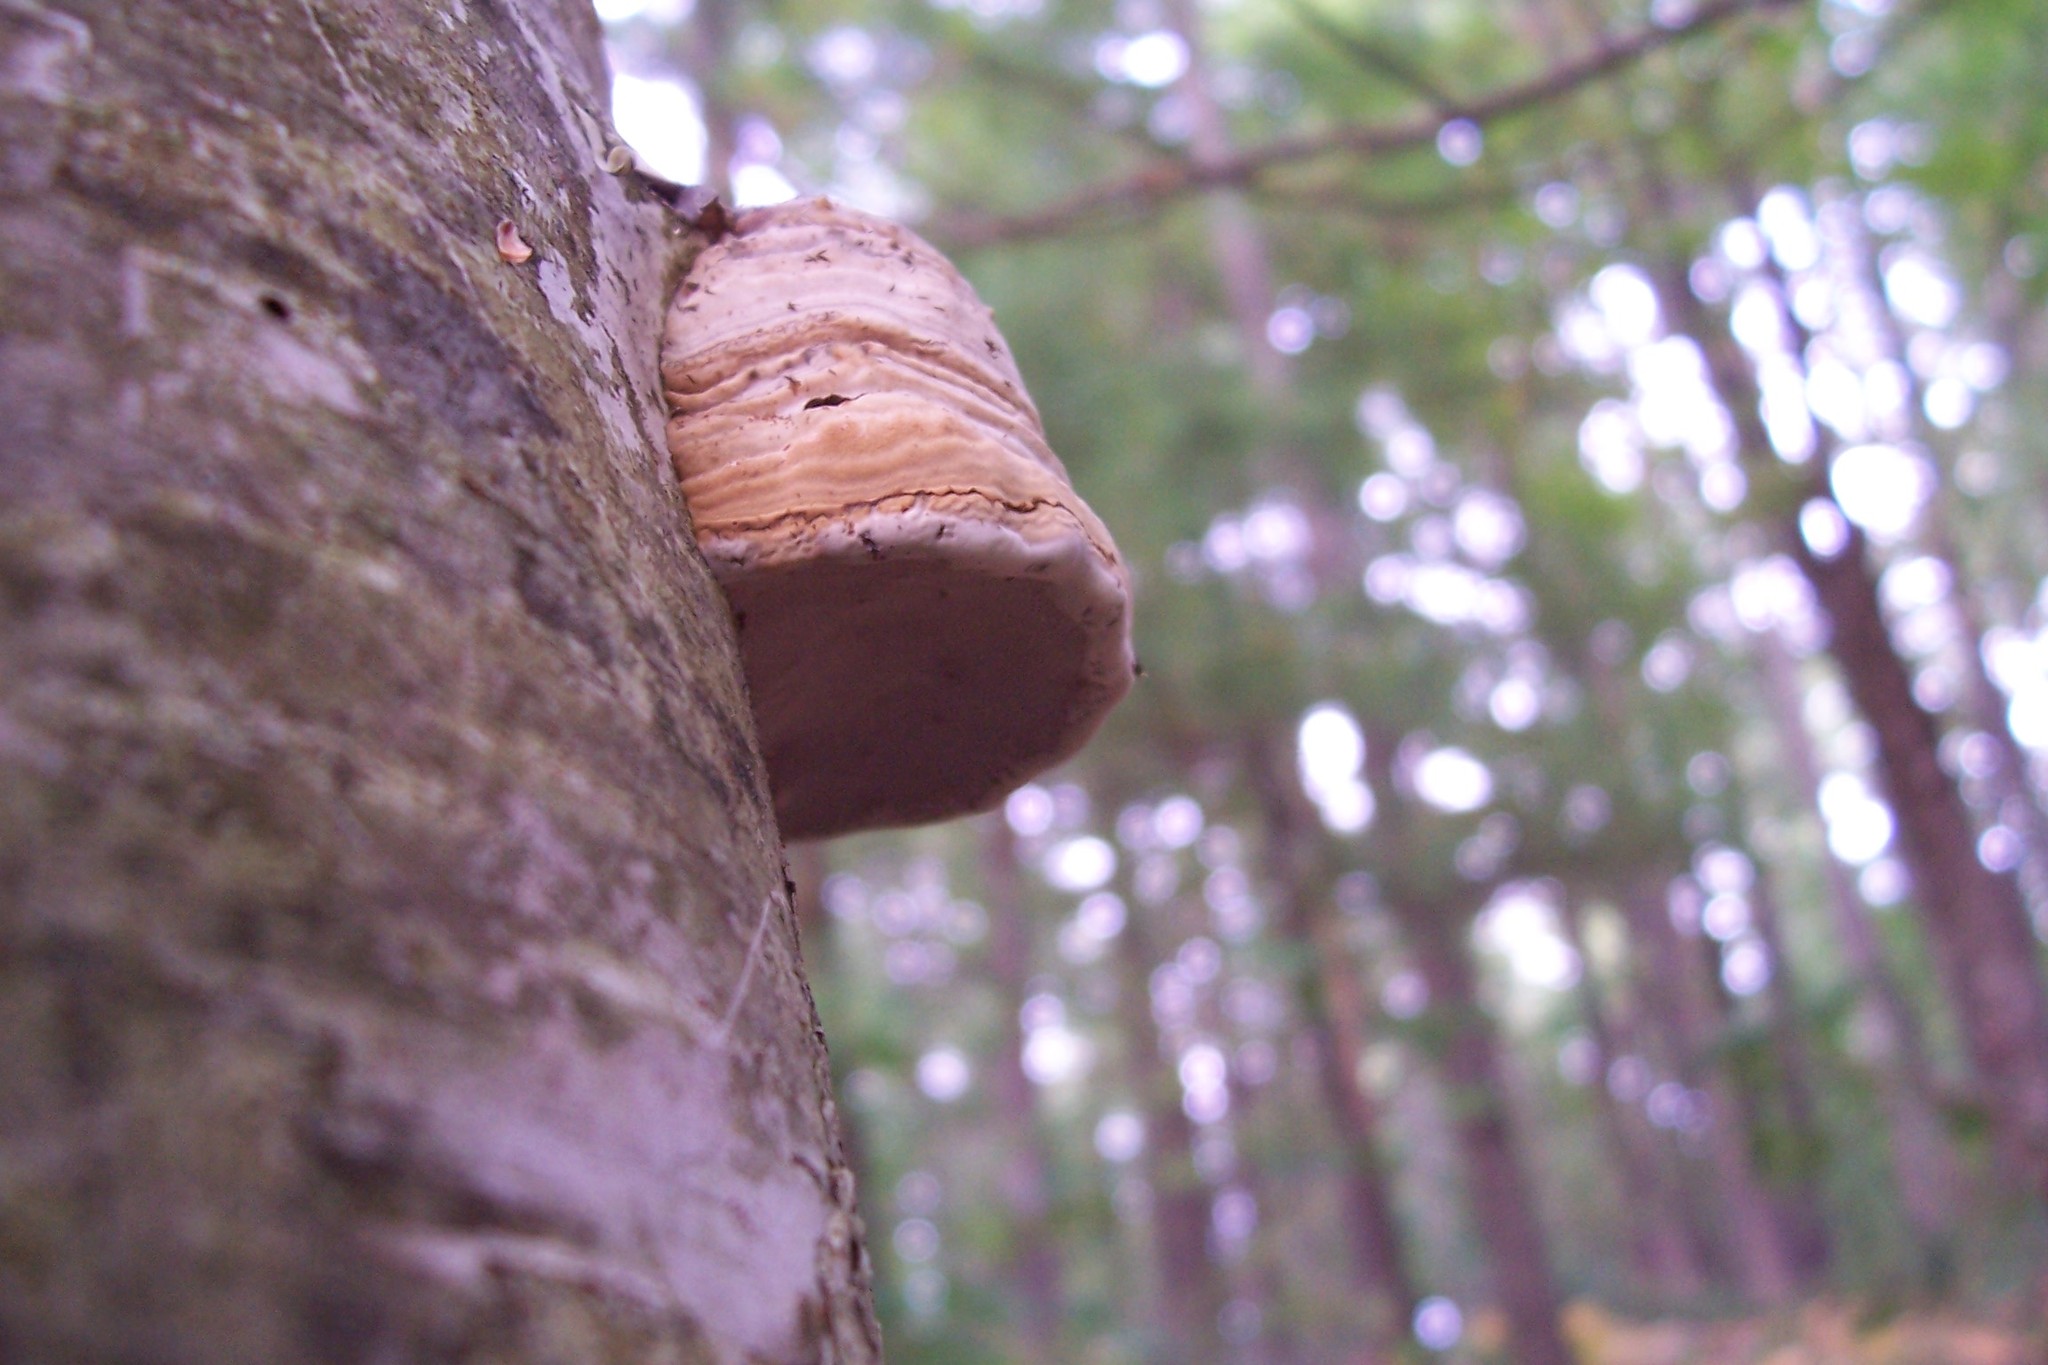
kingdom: Fungi
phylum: Basidiomycota
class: Agaricomycetes
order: Polyporales
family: Polyporaceae
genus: Fomes
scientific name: Fomes fomentarius
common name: Hoof fungus
